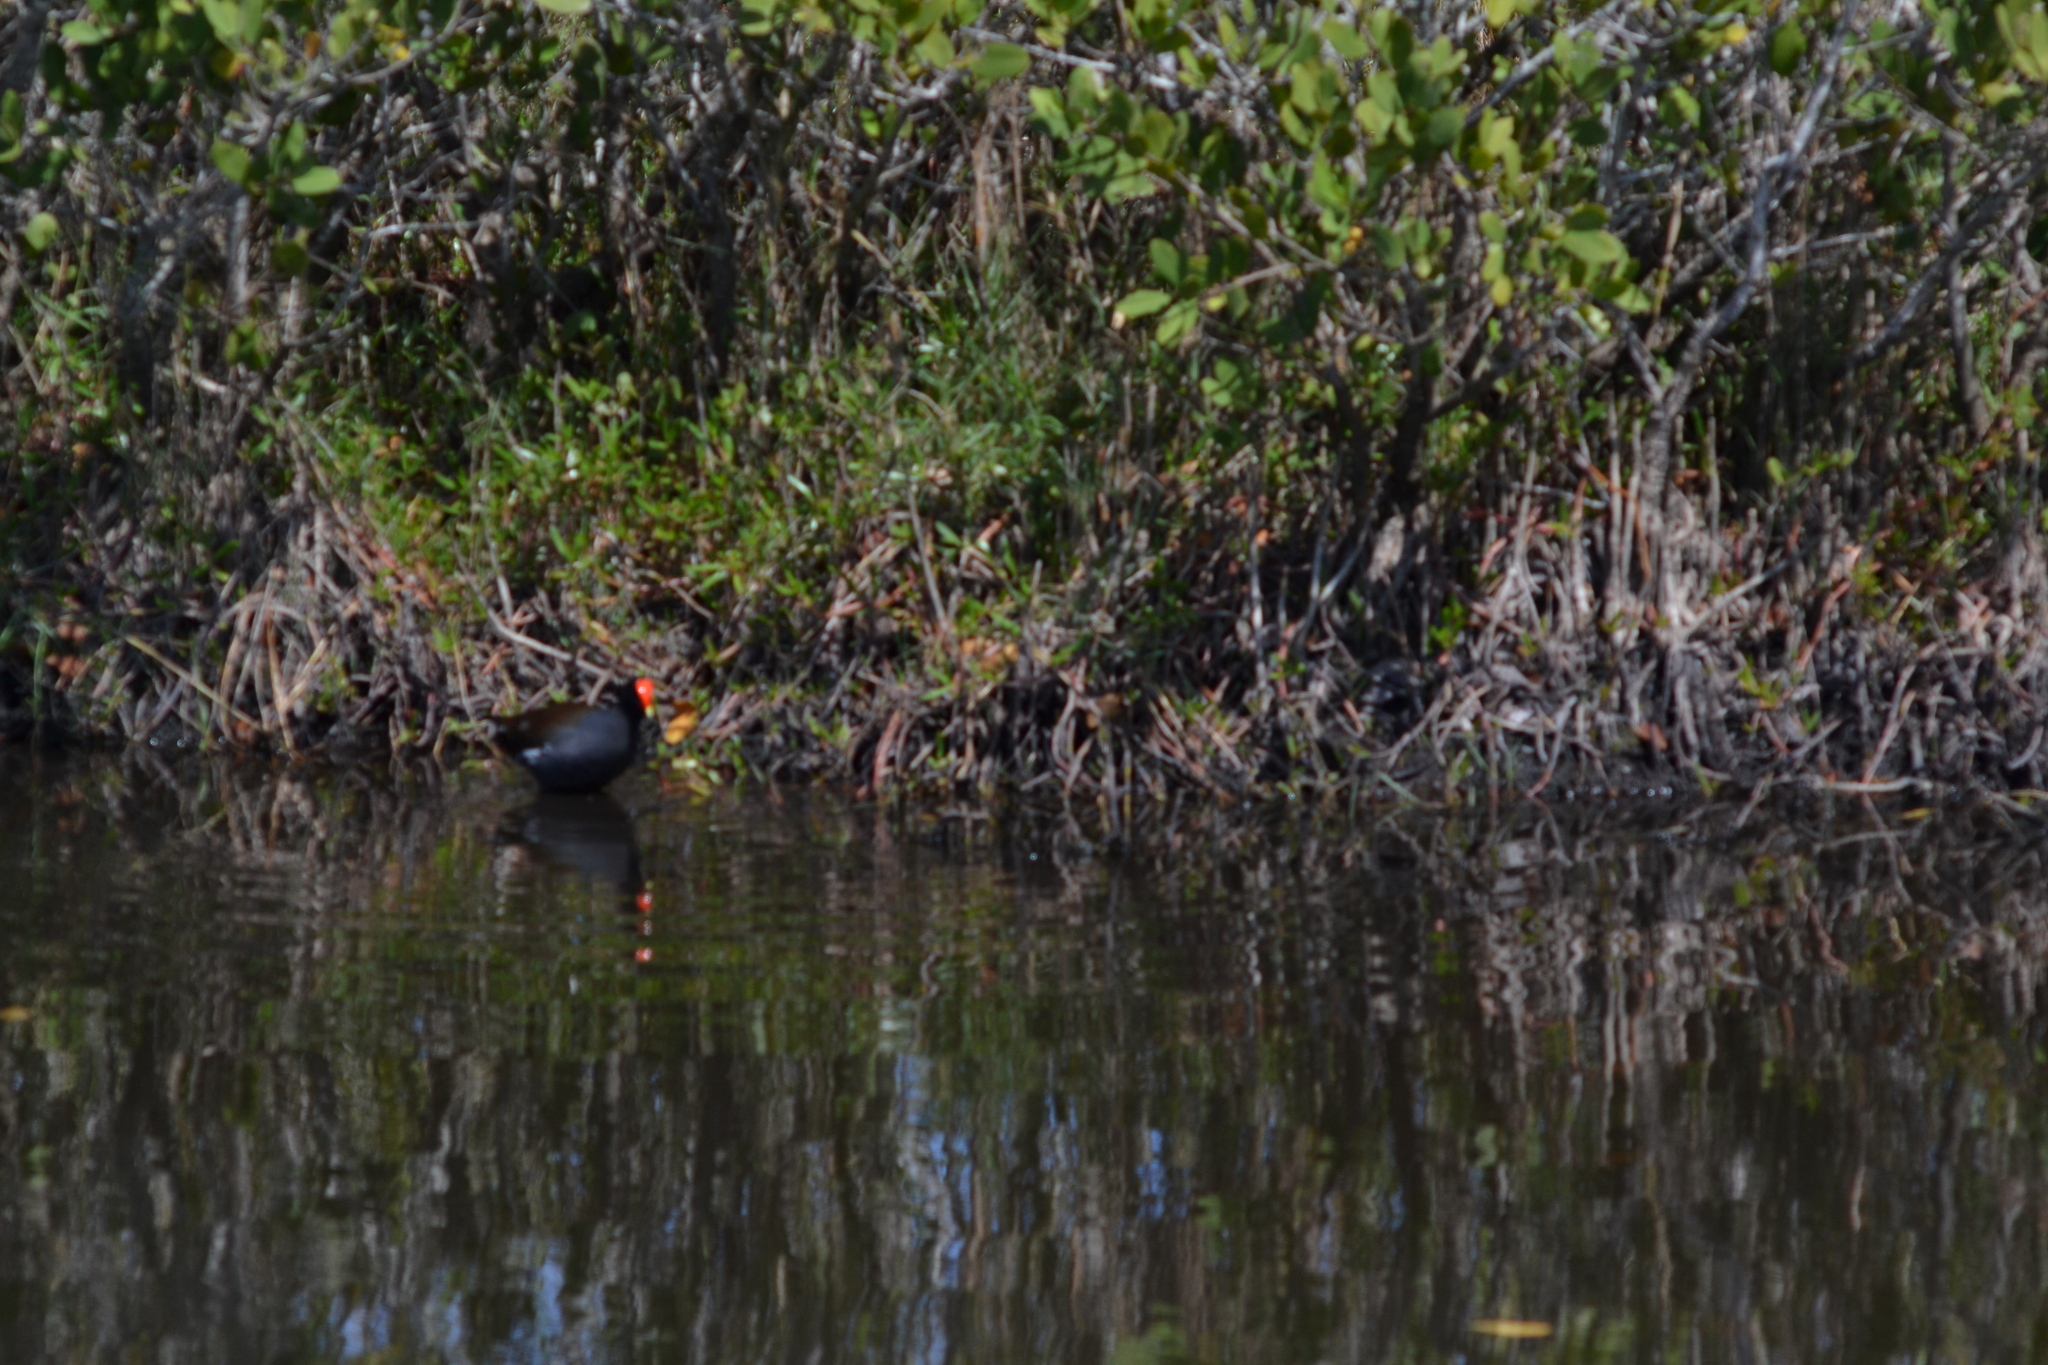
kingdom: Animalia
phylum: Chordata
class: Aves
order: Gruiformes
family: Rallidae
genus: Gallinula
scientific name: Gallinula chloropus
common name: Common moorhen
